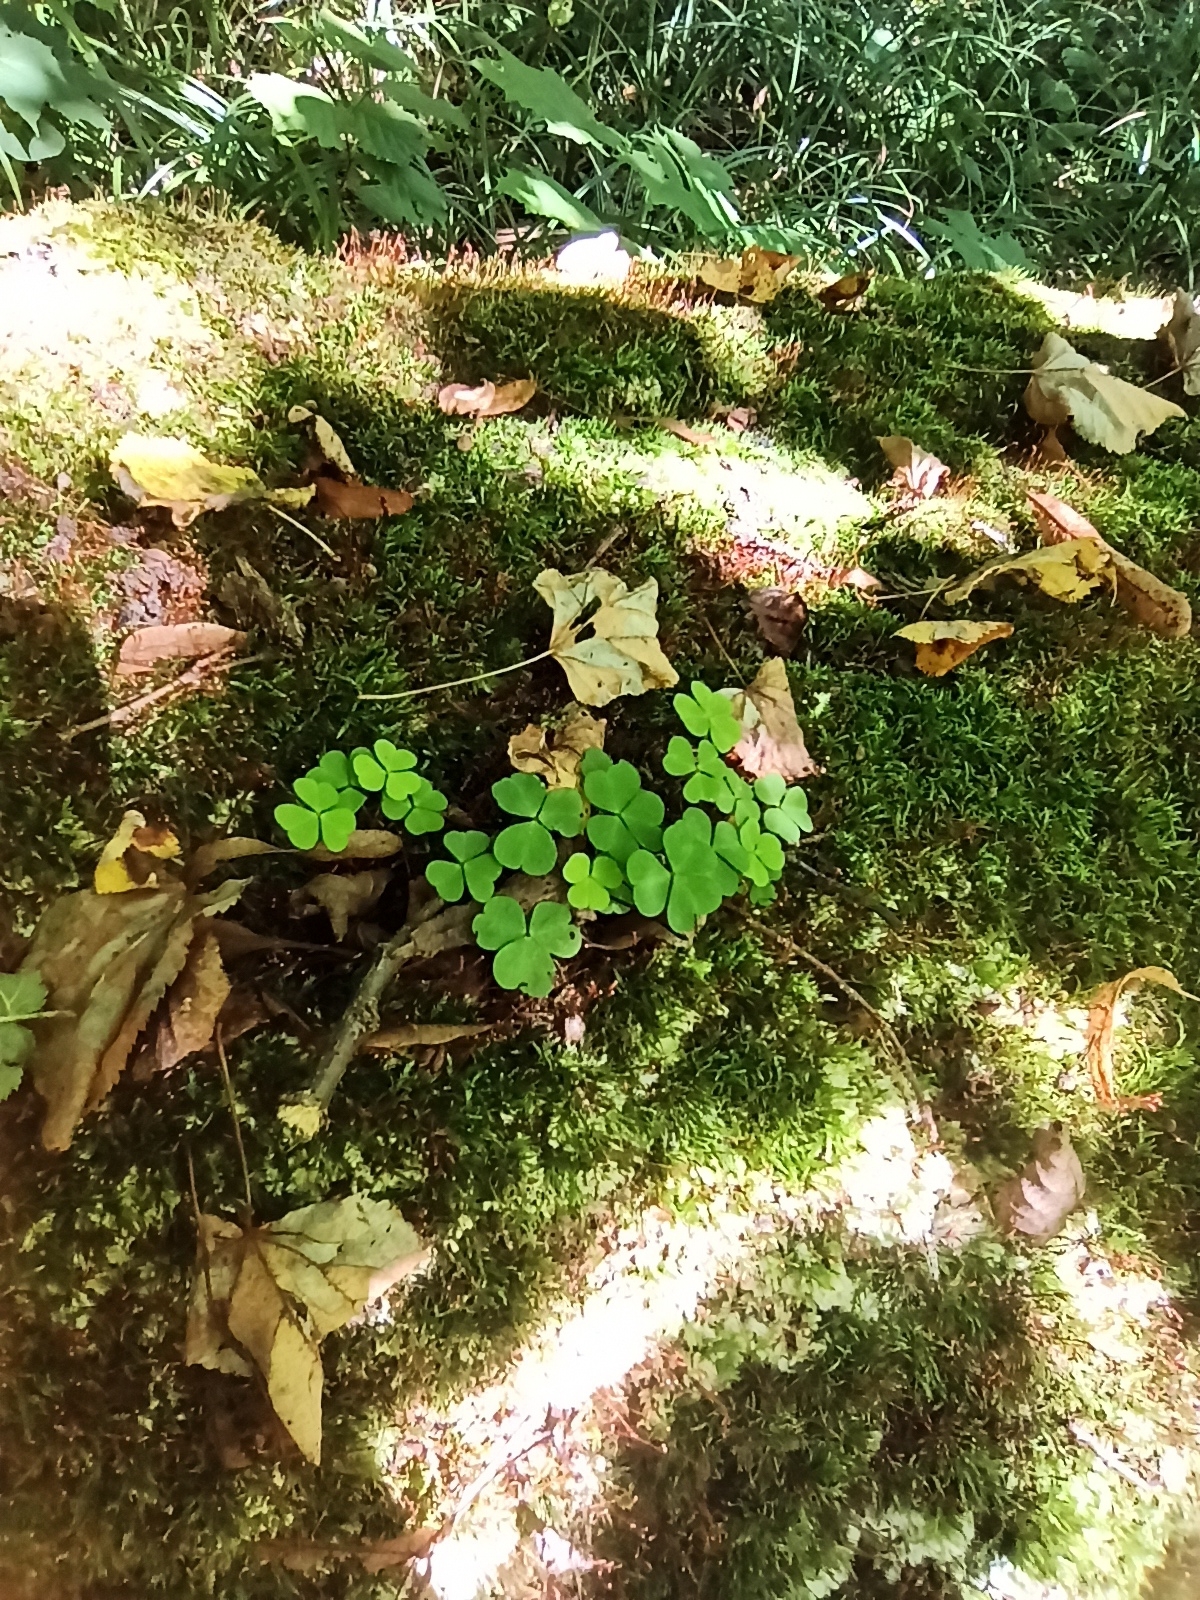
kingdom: Plantae
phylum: Tracheophyta
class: Magnoliopsida
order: Oxalidales
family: Oxalidaceae
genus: Oxalis
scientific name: Oxalis acetosella
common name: Wood-sorrel
